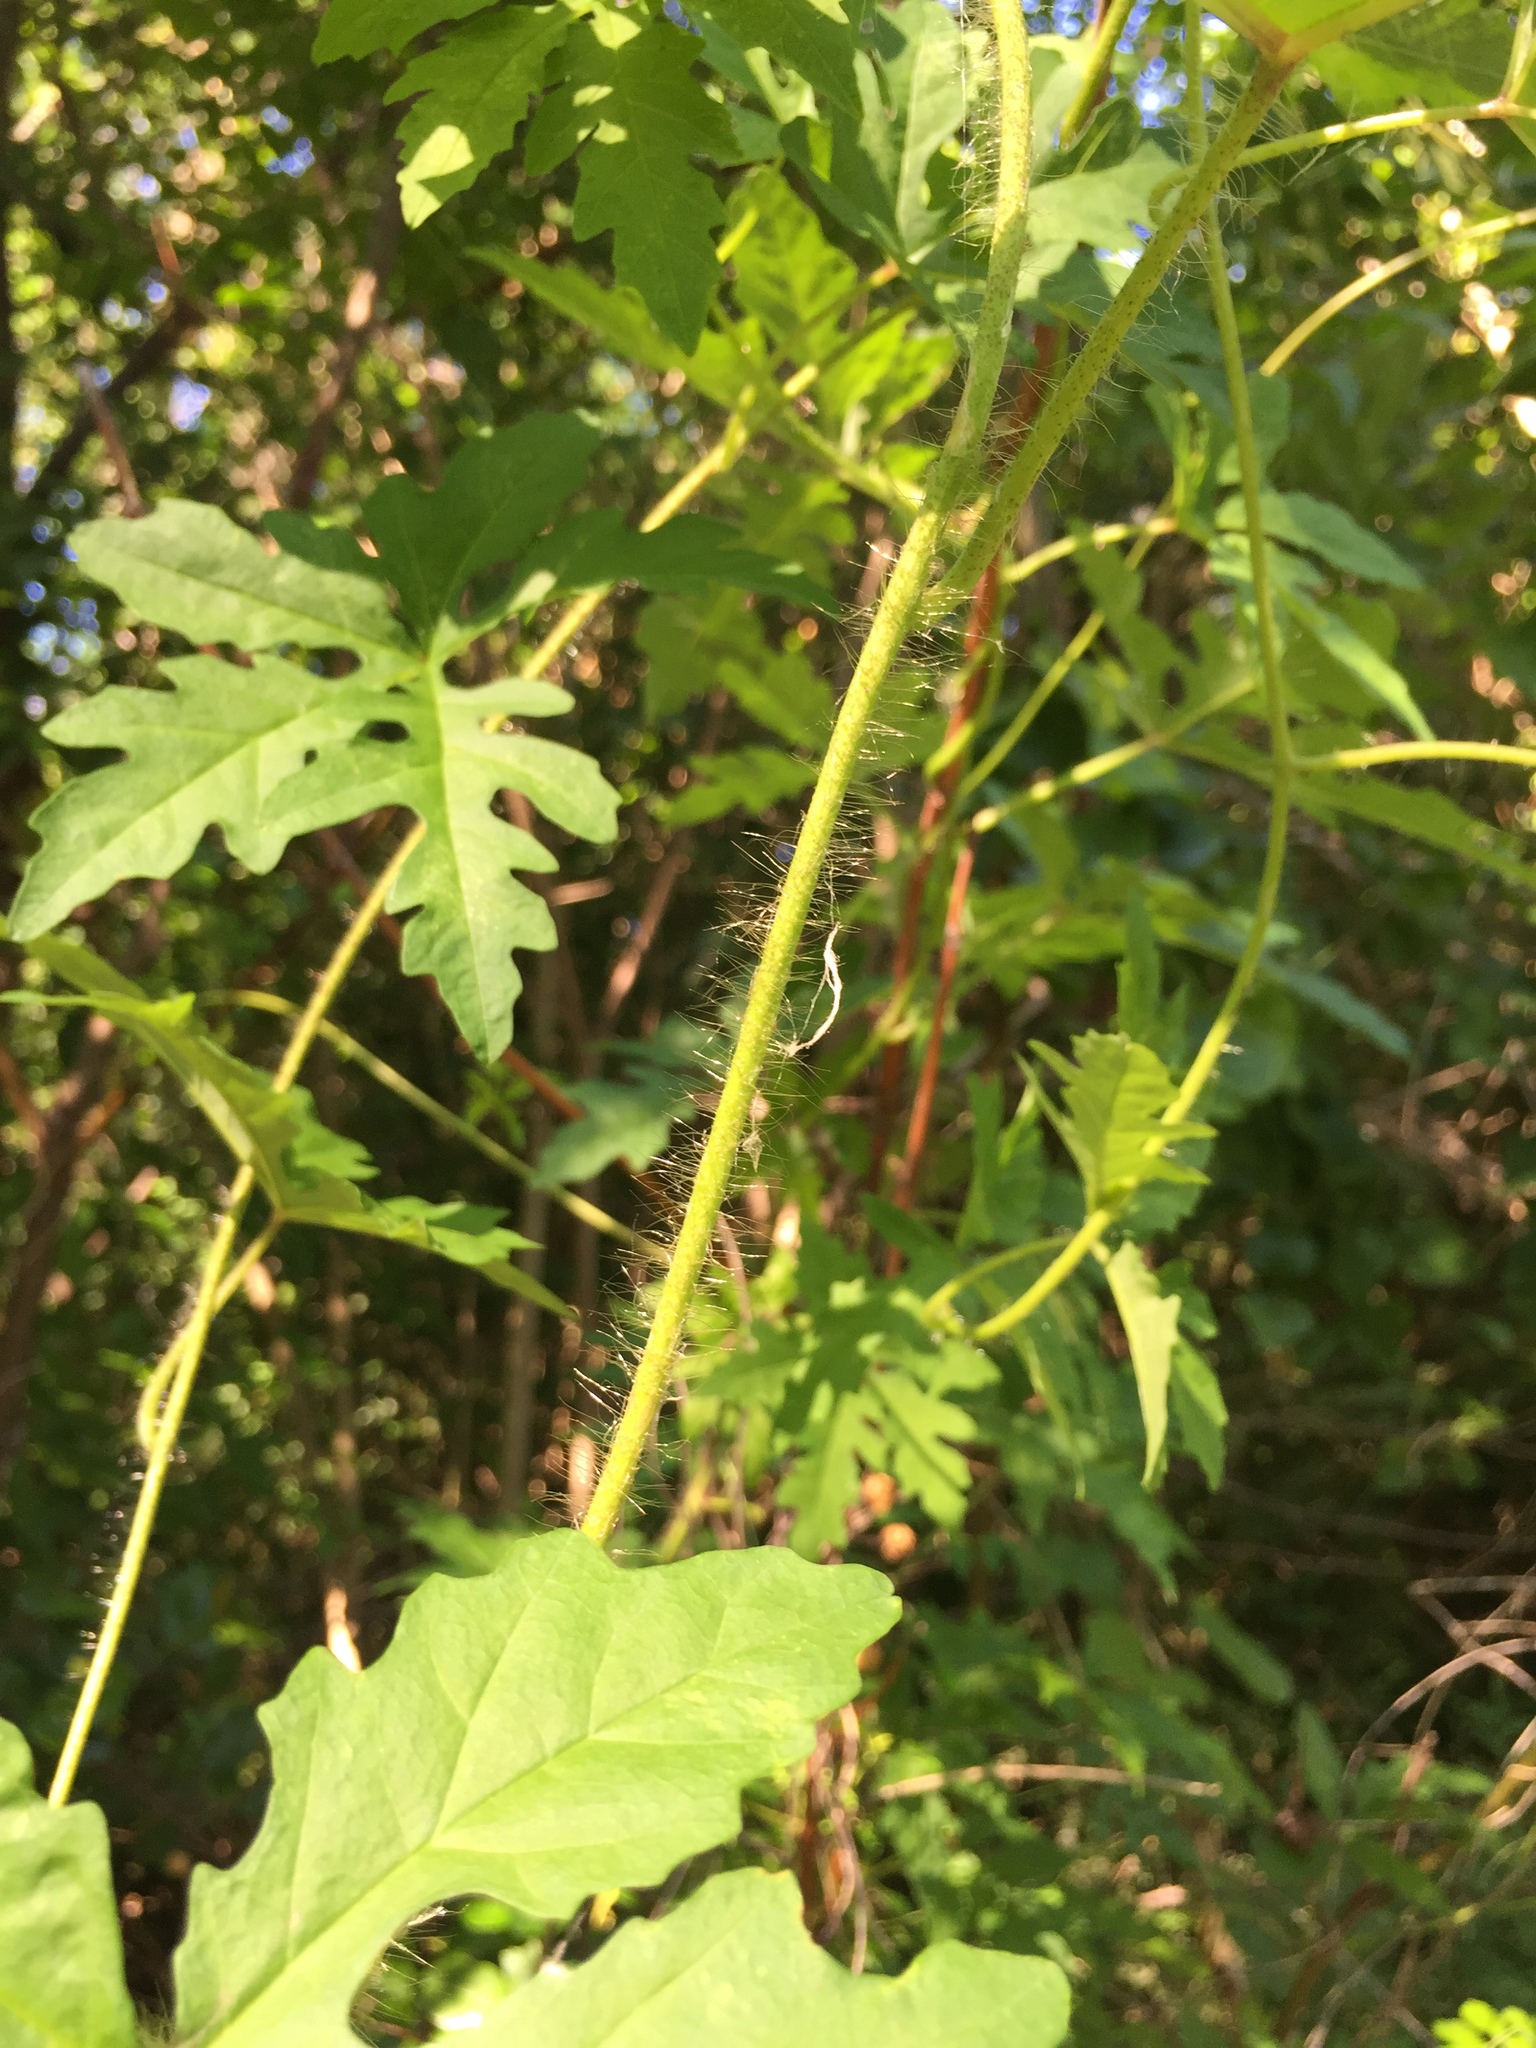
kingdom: Plantae
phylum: Tracheophyta
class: Magnoliopsida
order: Solanales
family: Convolvulaceae
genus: Distimake
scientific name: Distimake dissectus
